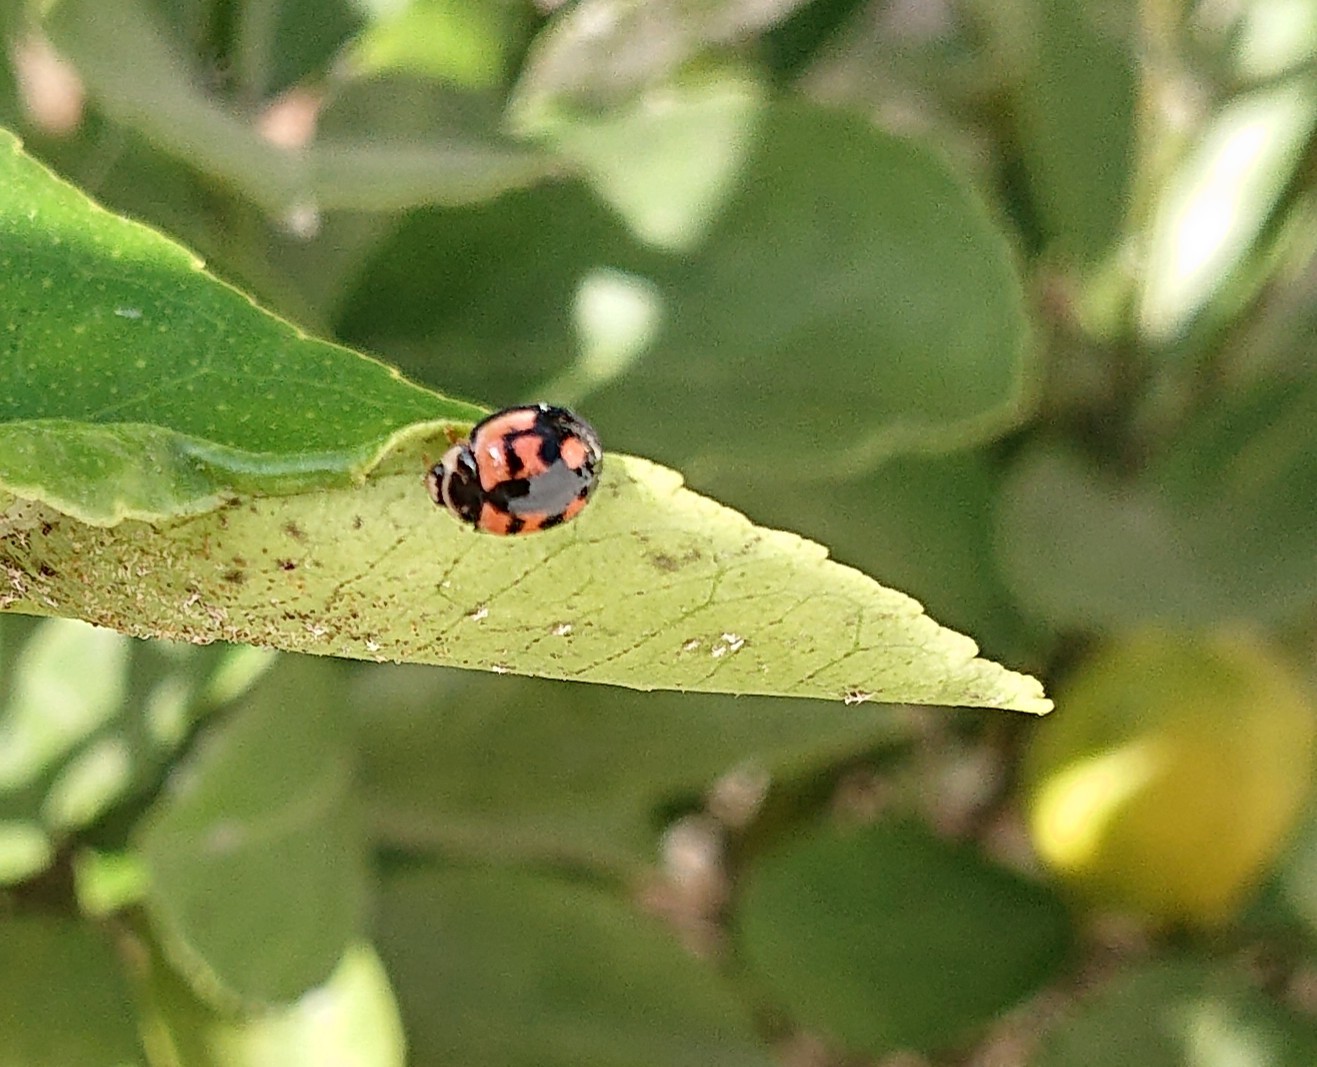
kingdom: Animalia
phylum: Arthropoda
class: Insecta
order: Coleoptera
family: Coccinellidae
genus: Cheilomenes
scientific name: Cheilomenes sexmaculata
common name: Ladybird beetle
